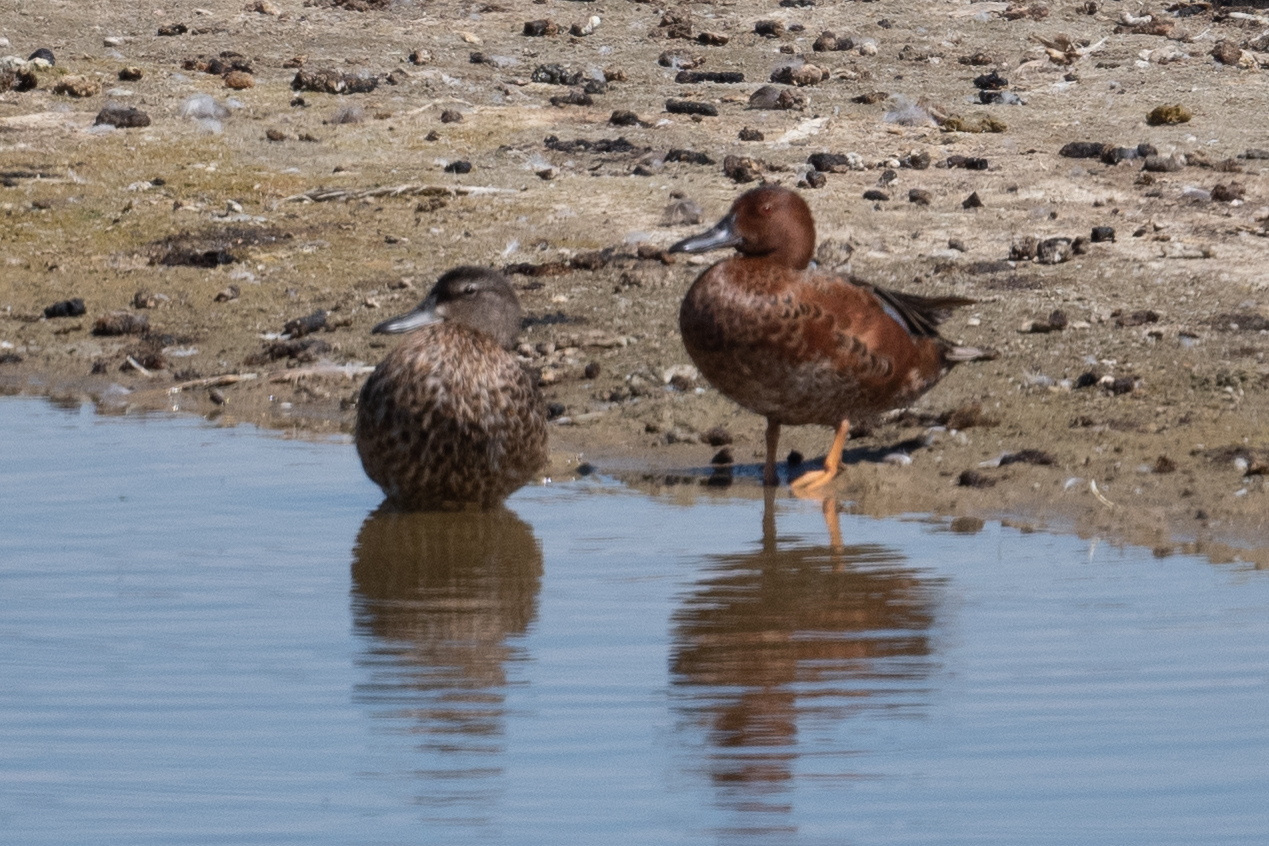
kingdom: Animalia
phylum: Chordata
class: Aves
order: Anseriformes
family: Anatidae
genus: Spatula
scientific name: Spatula cyanoptera
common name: Cinnamon teal
